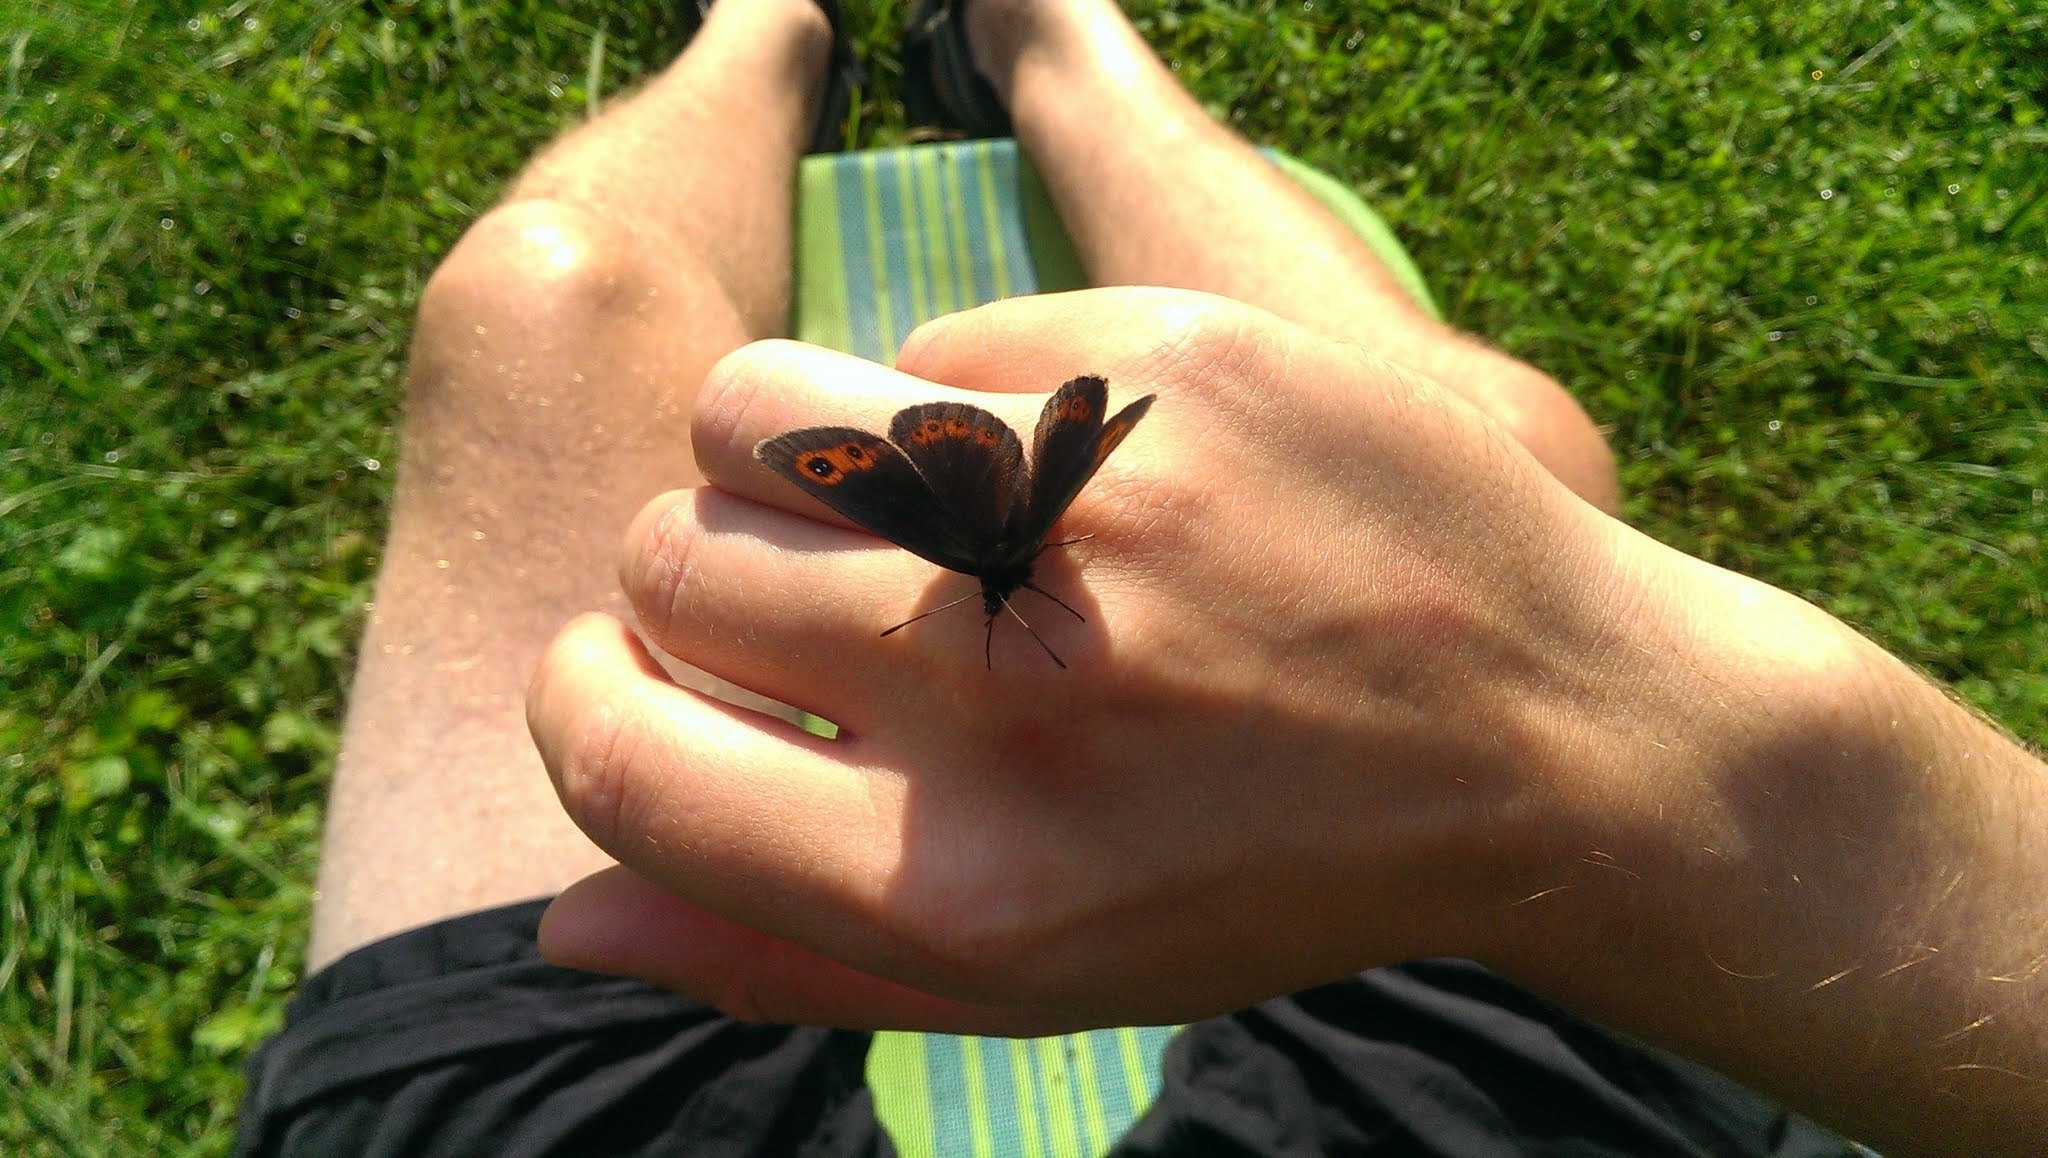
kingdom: Animalia
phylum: Arthropoda
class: Insecta
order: Lepidoptera
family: Nymphalidae
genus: Erebia
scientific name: Erebia aethiops
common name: Scotch argus
